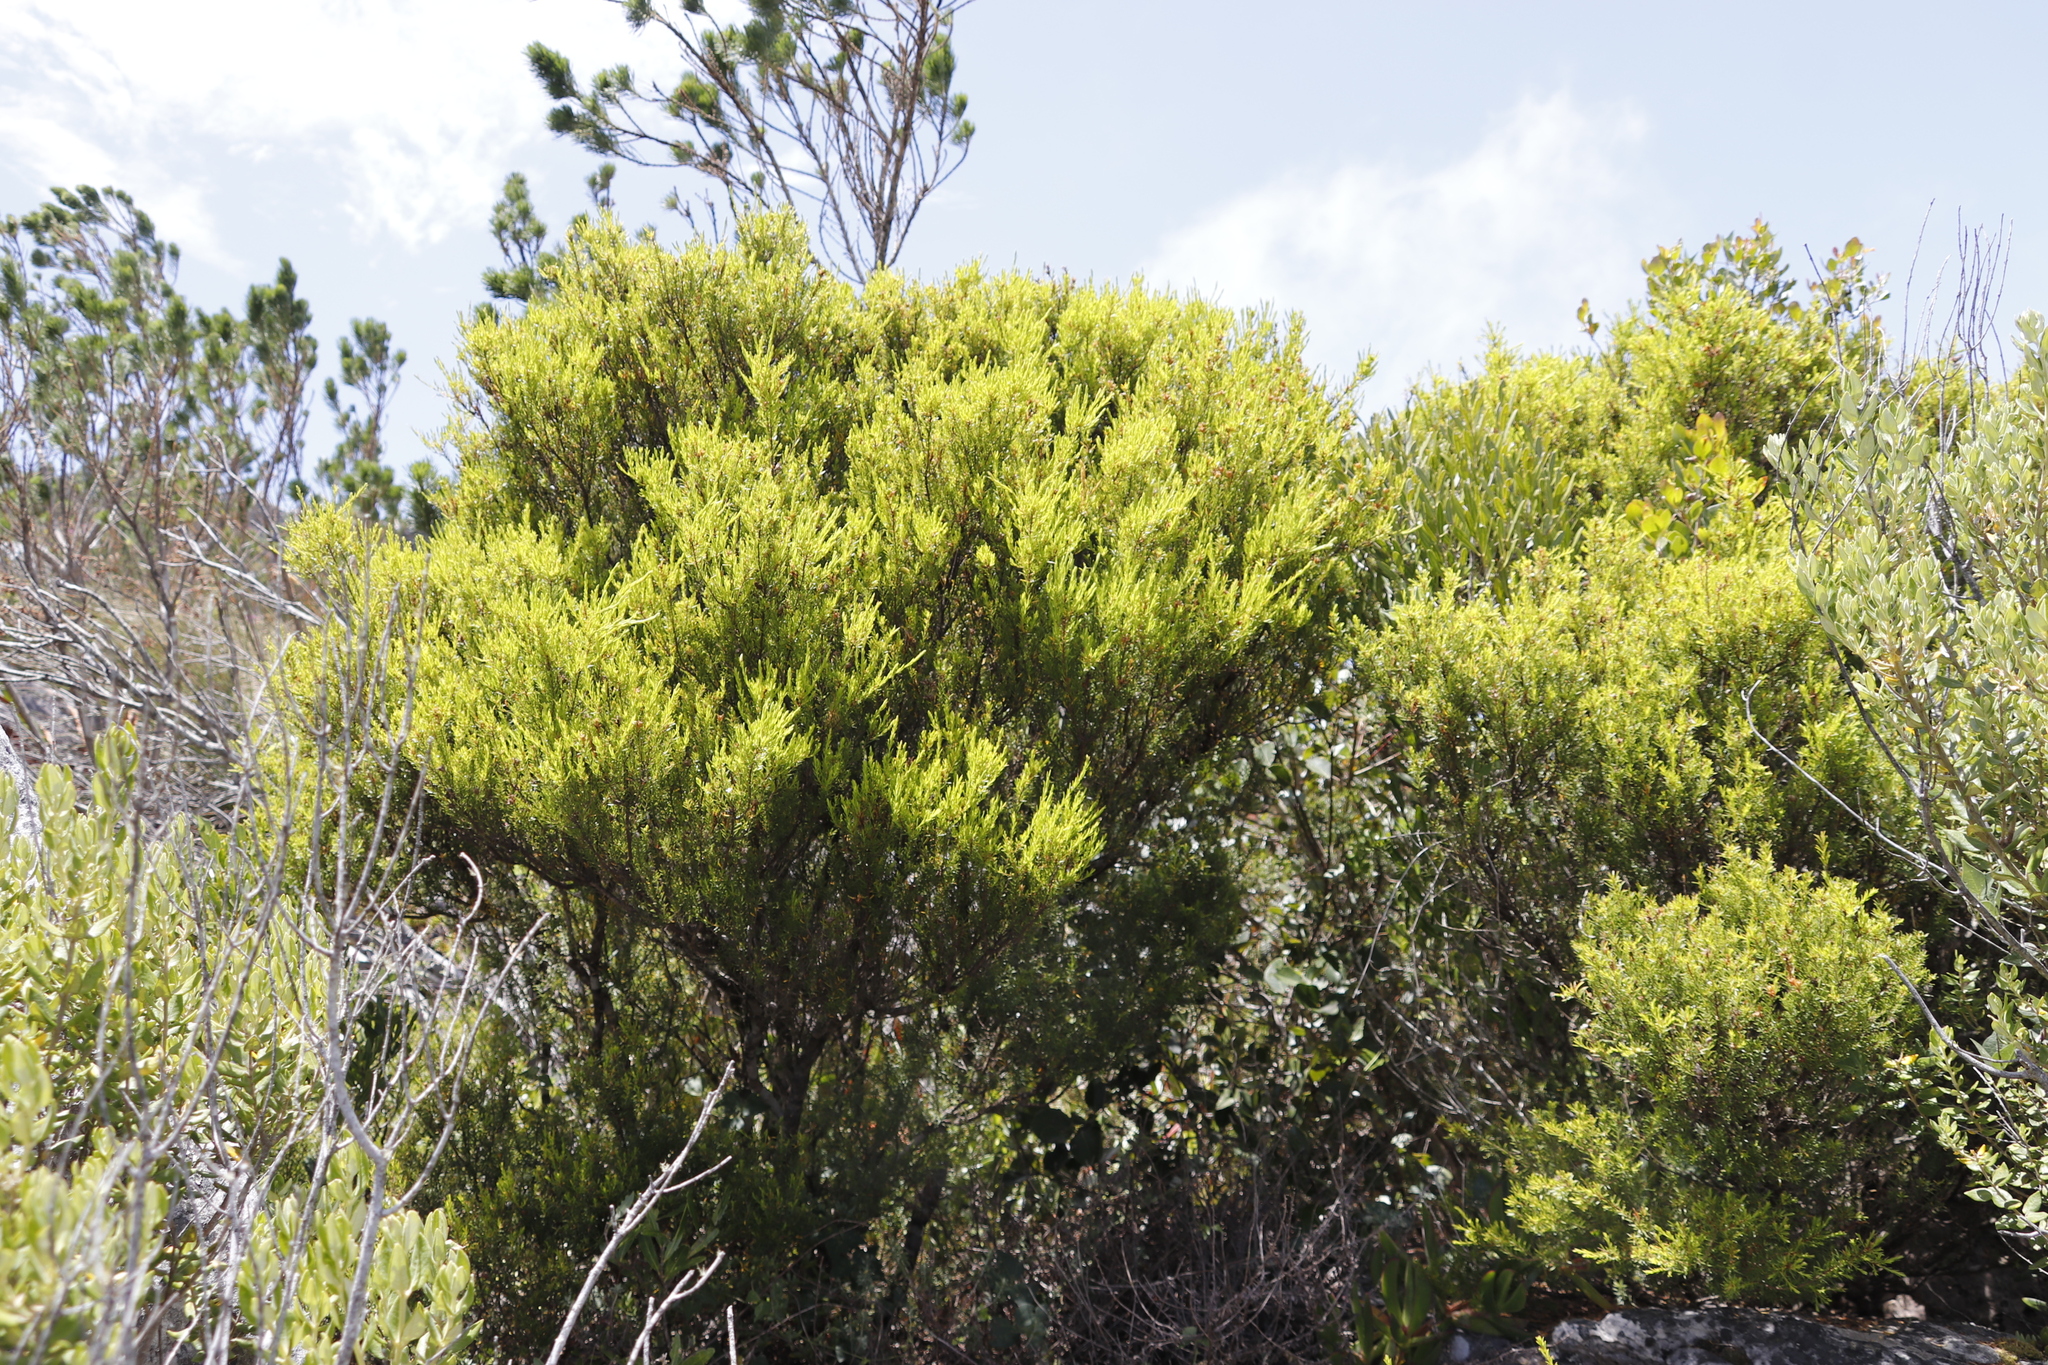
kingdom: Plantae
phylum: Tracheophyta
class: Magnoliopsida
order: Sapindales
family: Rutaceae
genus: Coleonema
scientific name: Coleonema album
